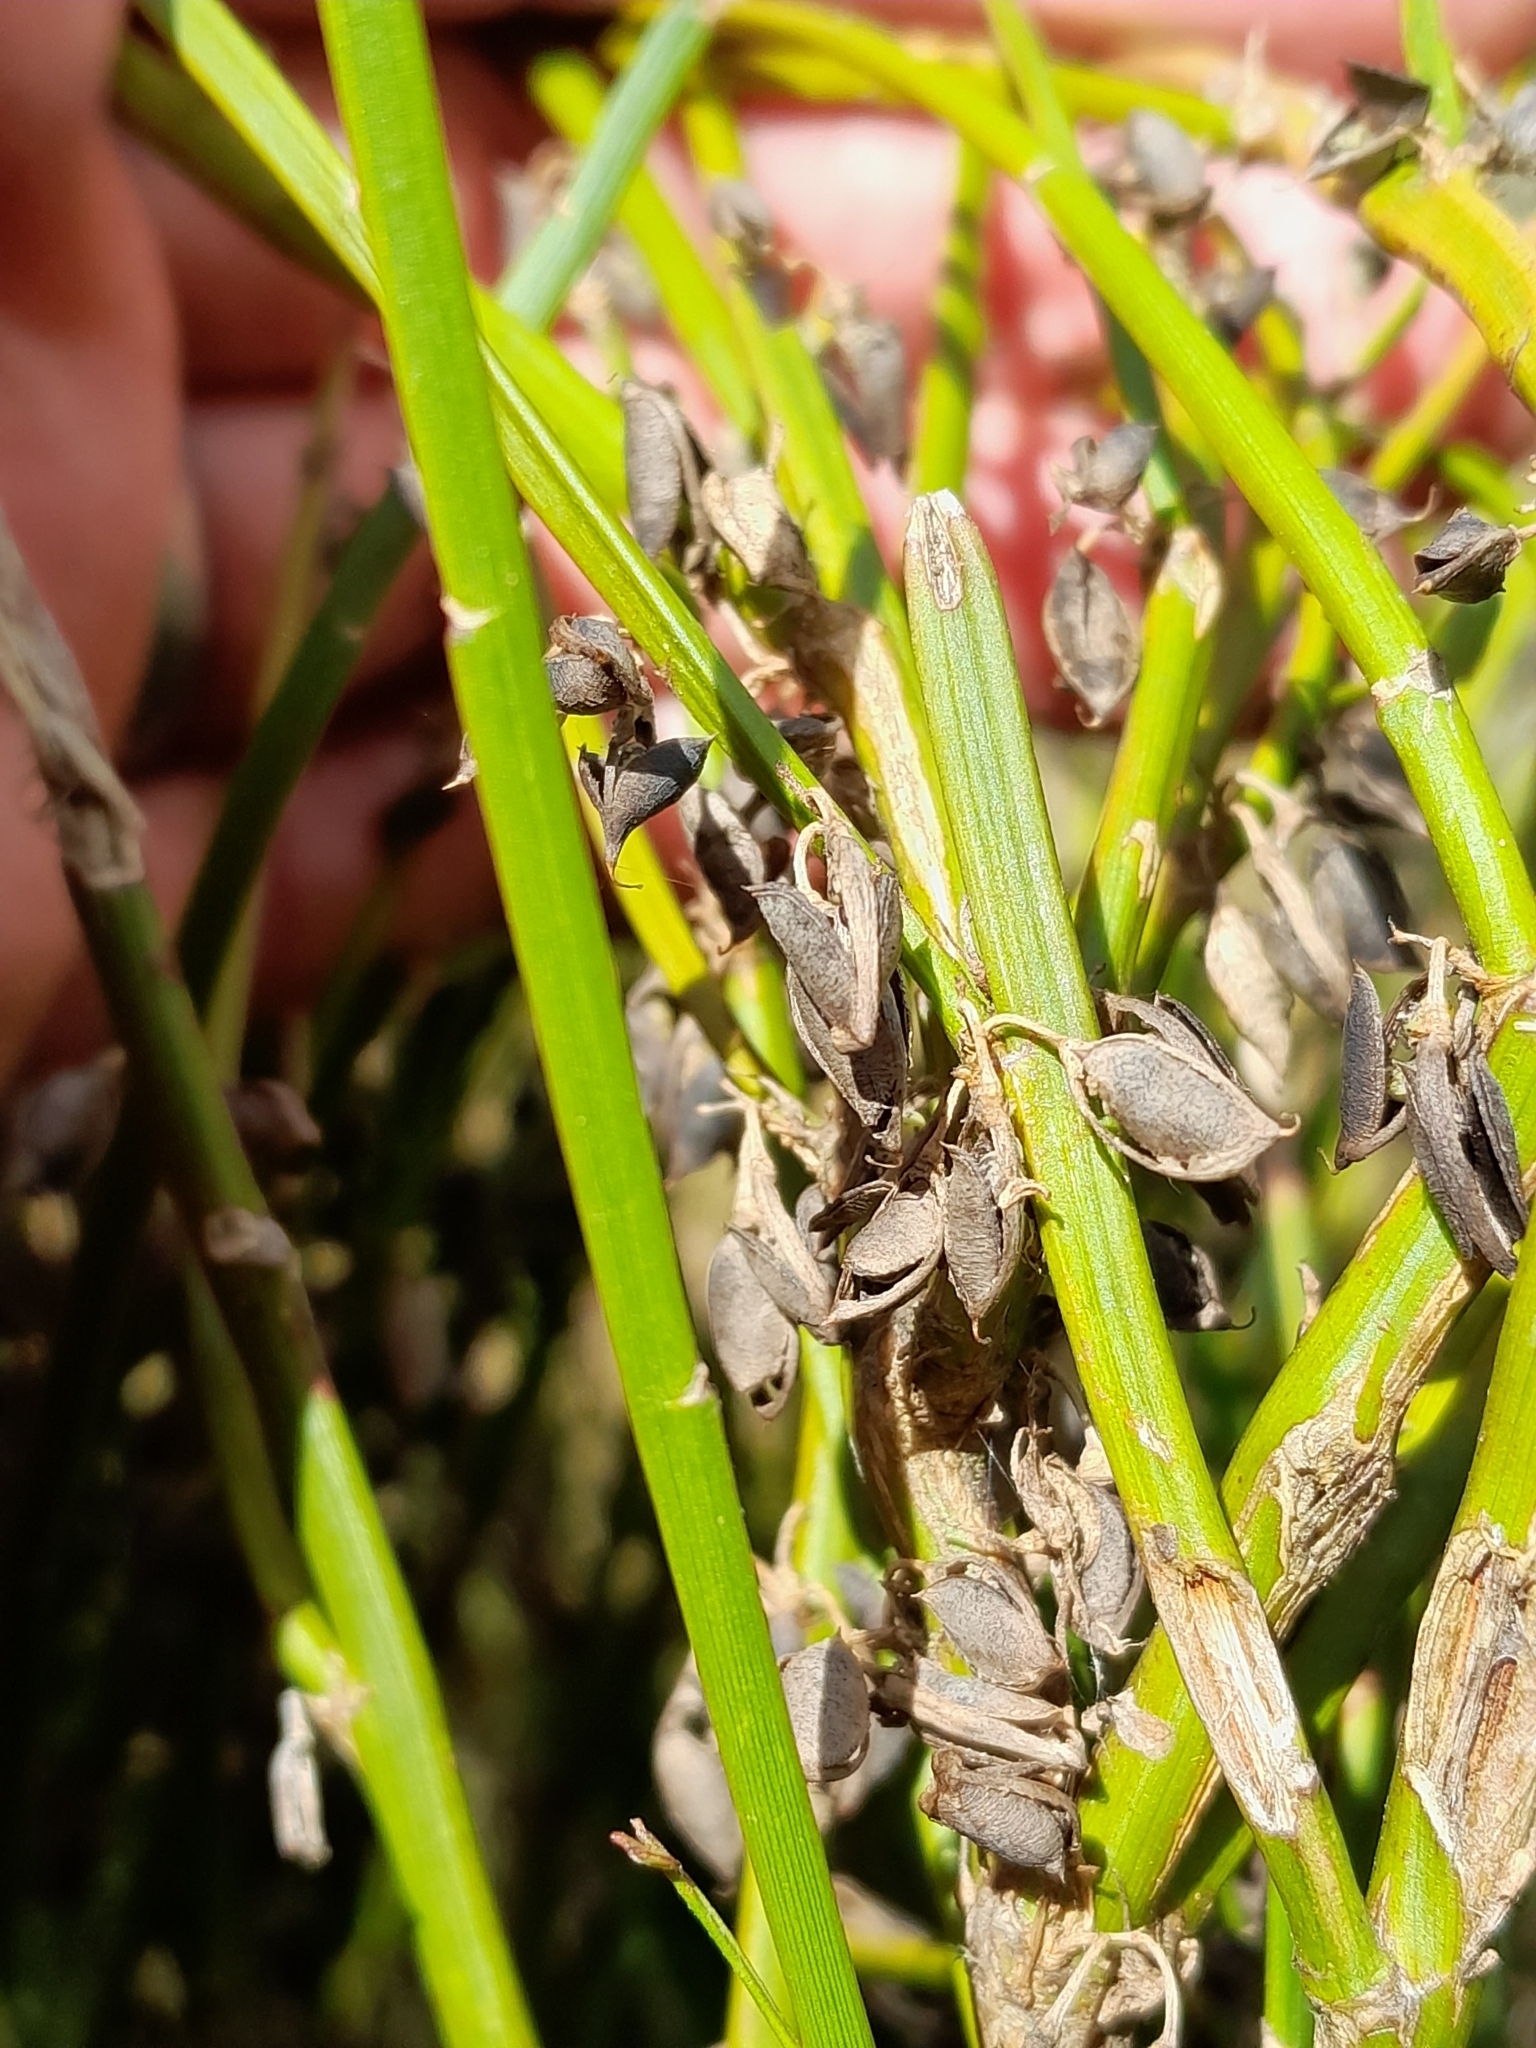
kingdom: Plantae
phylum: Tracheophyta
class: Magnoliopsida
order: Fabales
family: Fabaceae
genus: Carmichaelia
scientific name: Carmichaelia australis
